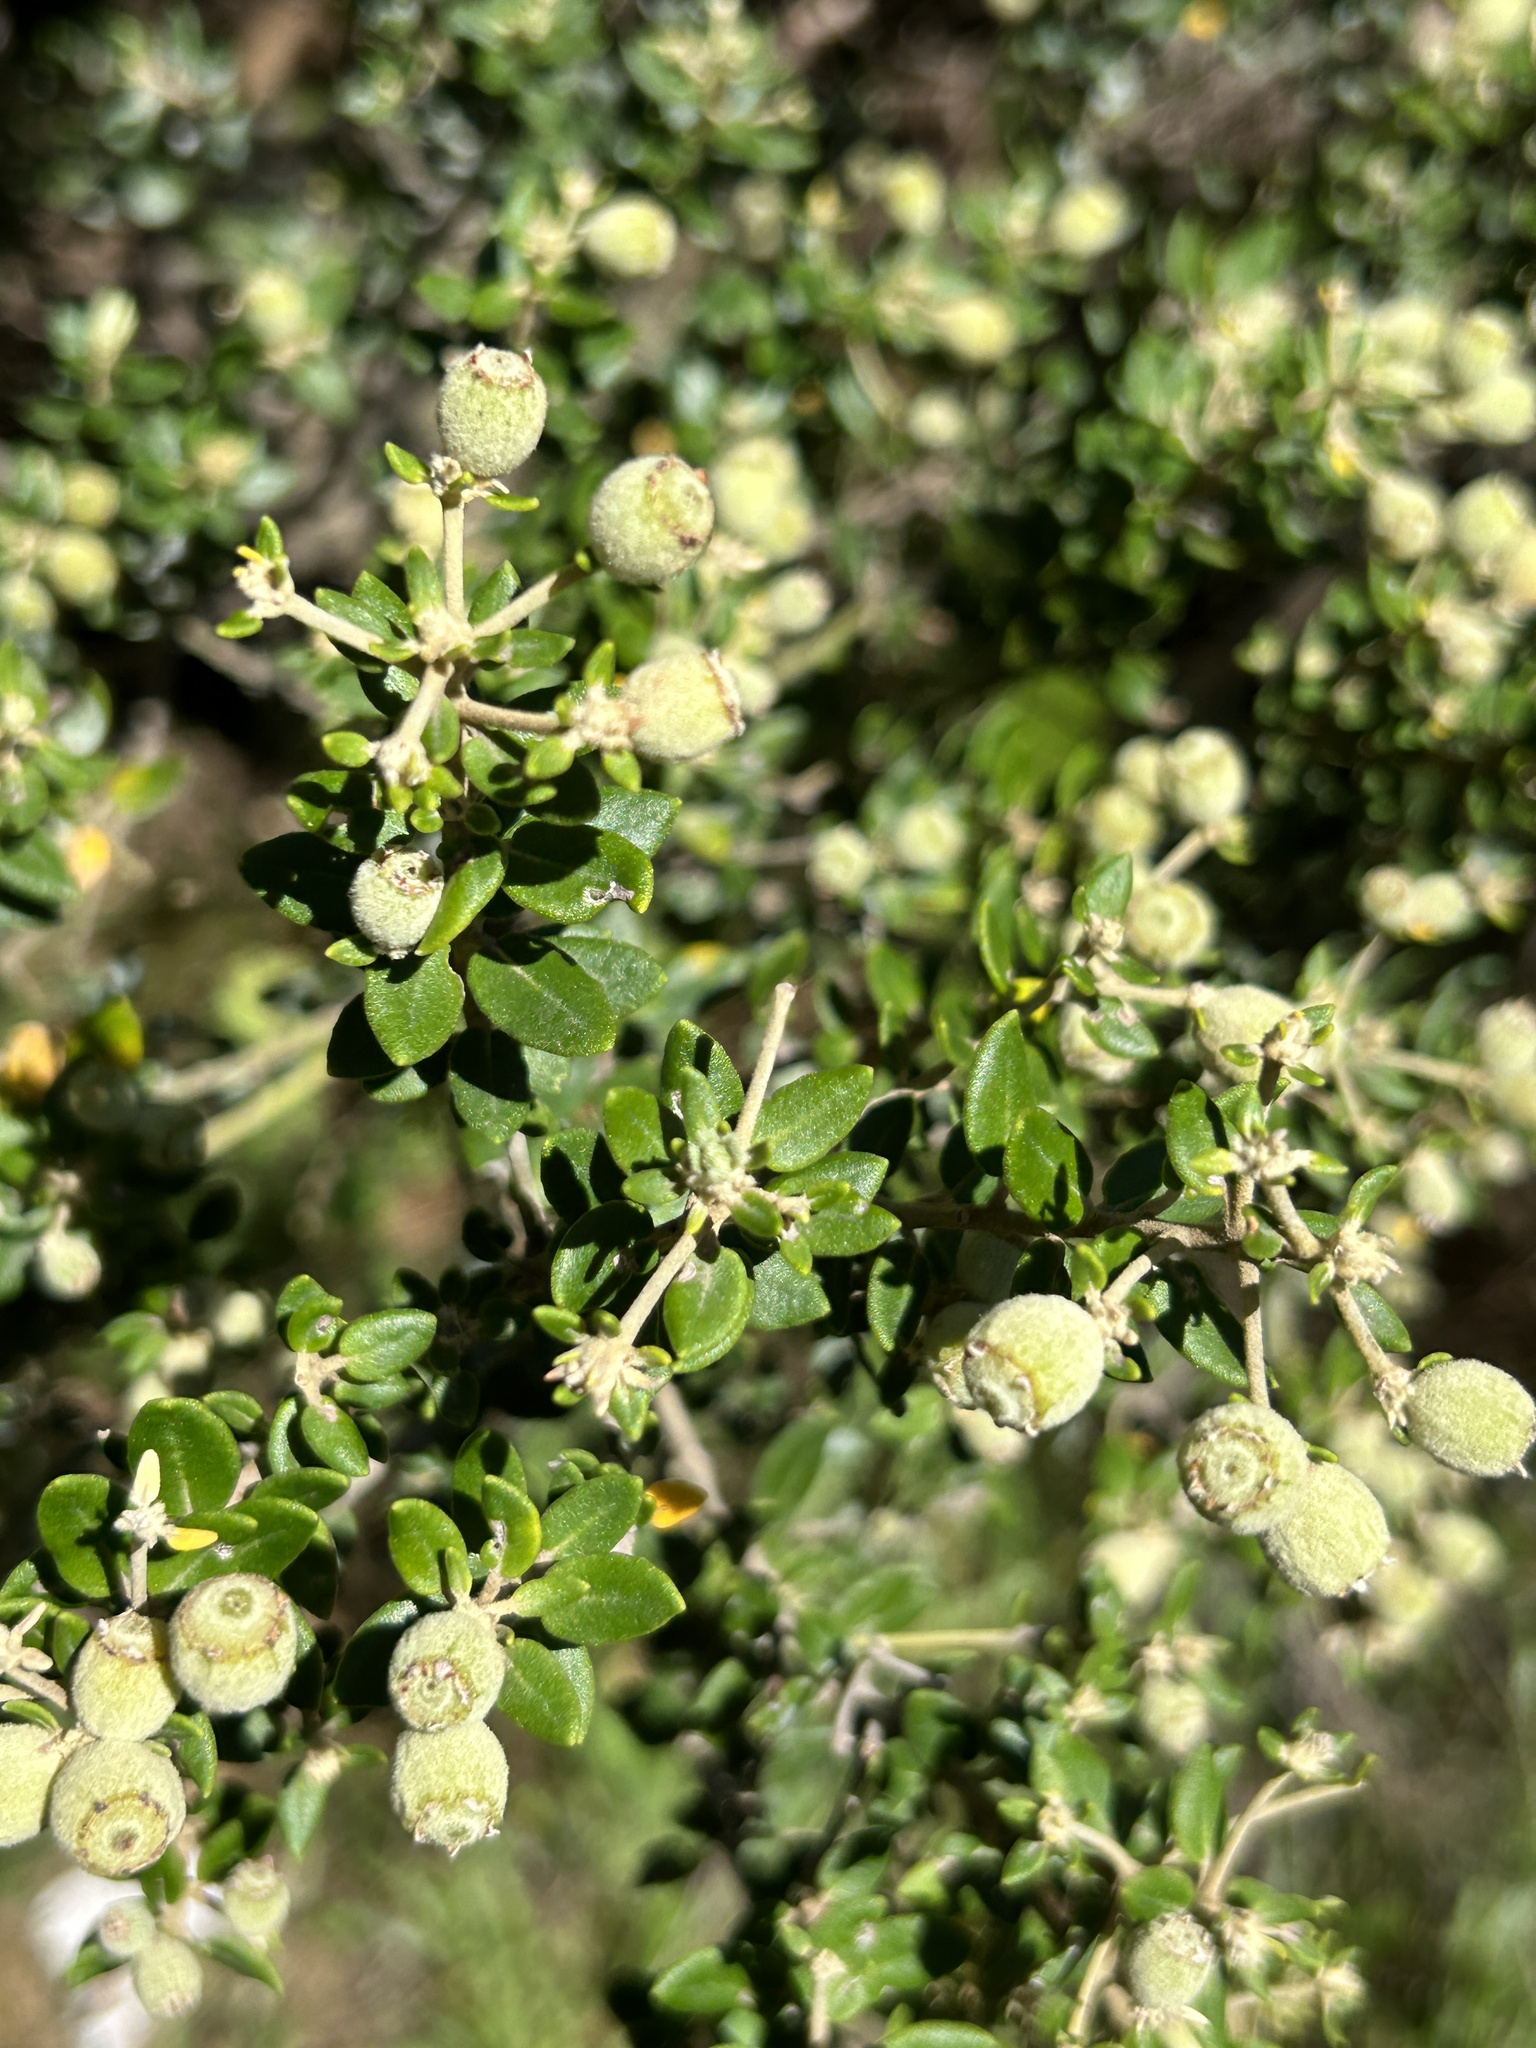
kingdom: Plantae
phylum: Tracheophyta
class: Magnoliopsida
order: Rosales
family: Rhamnaceae
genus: Phylica
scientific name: Phylica buxifolia
